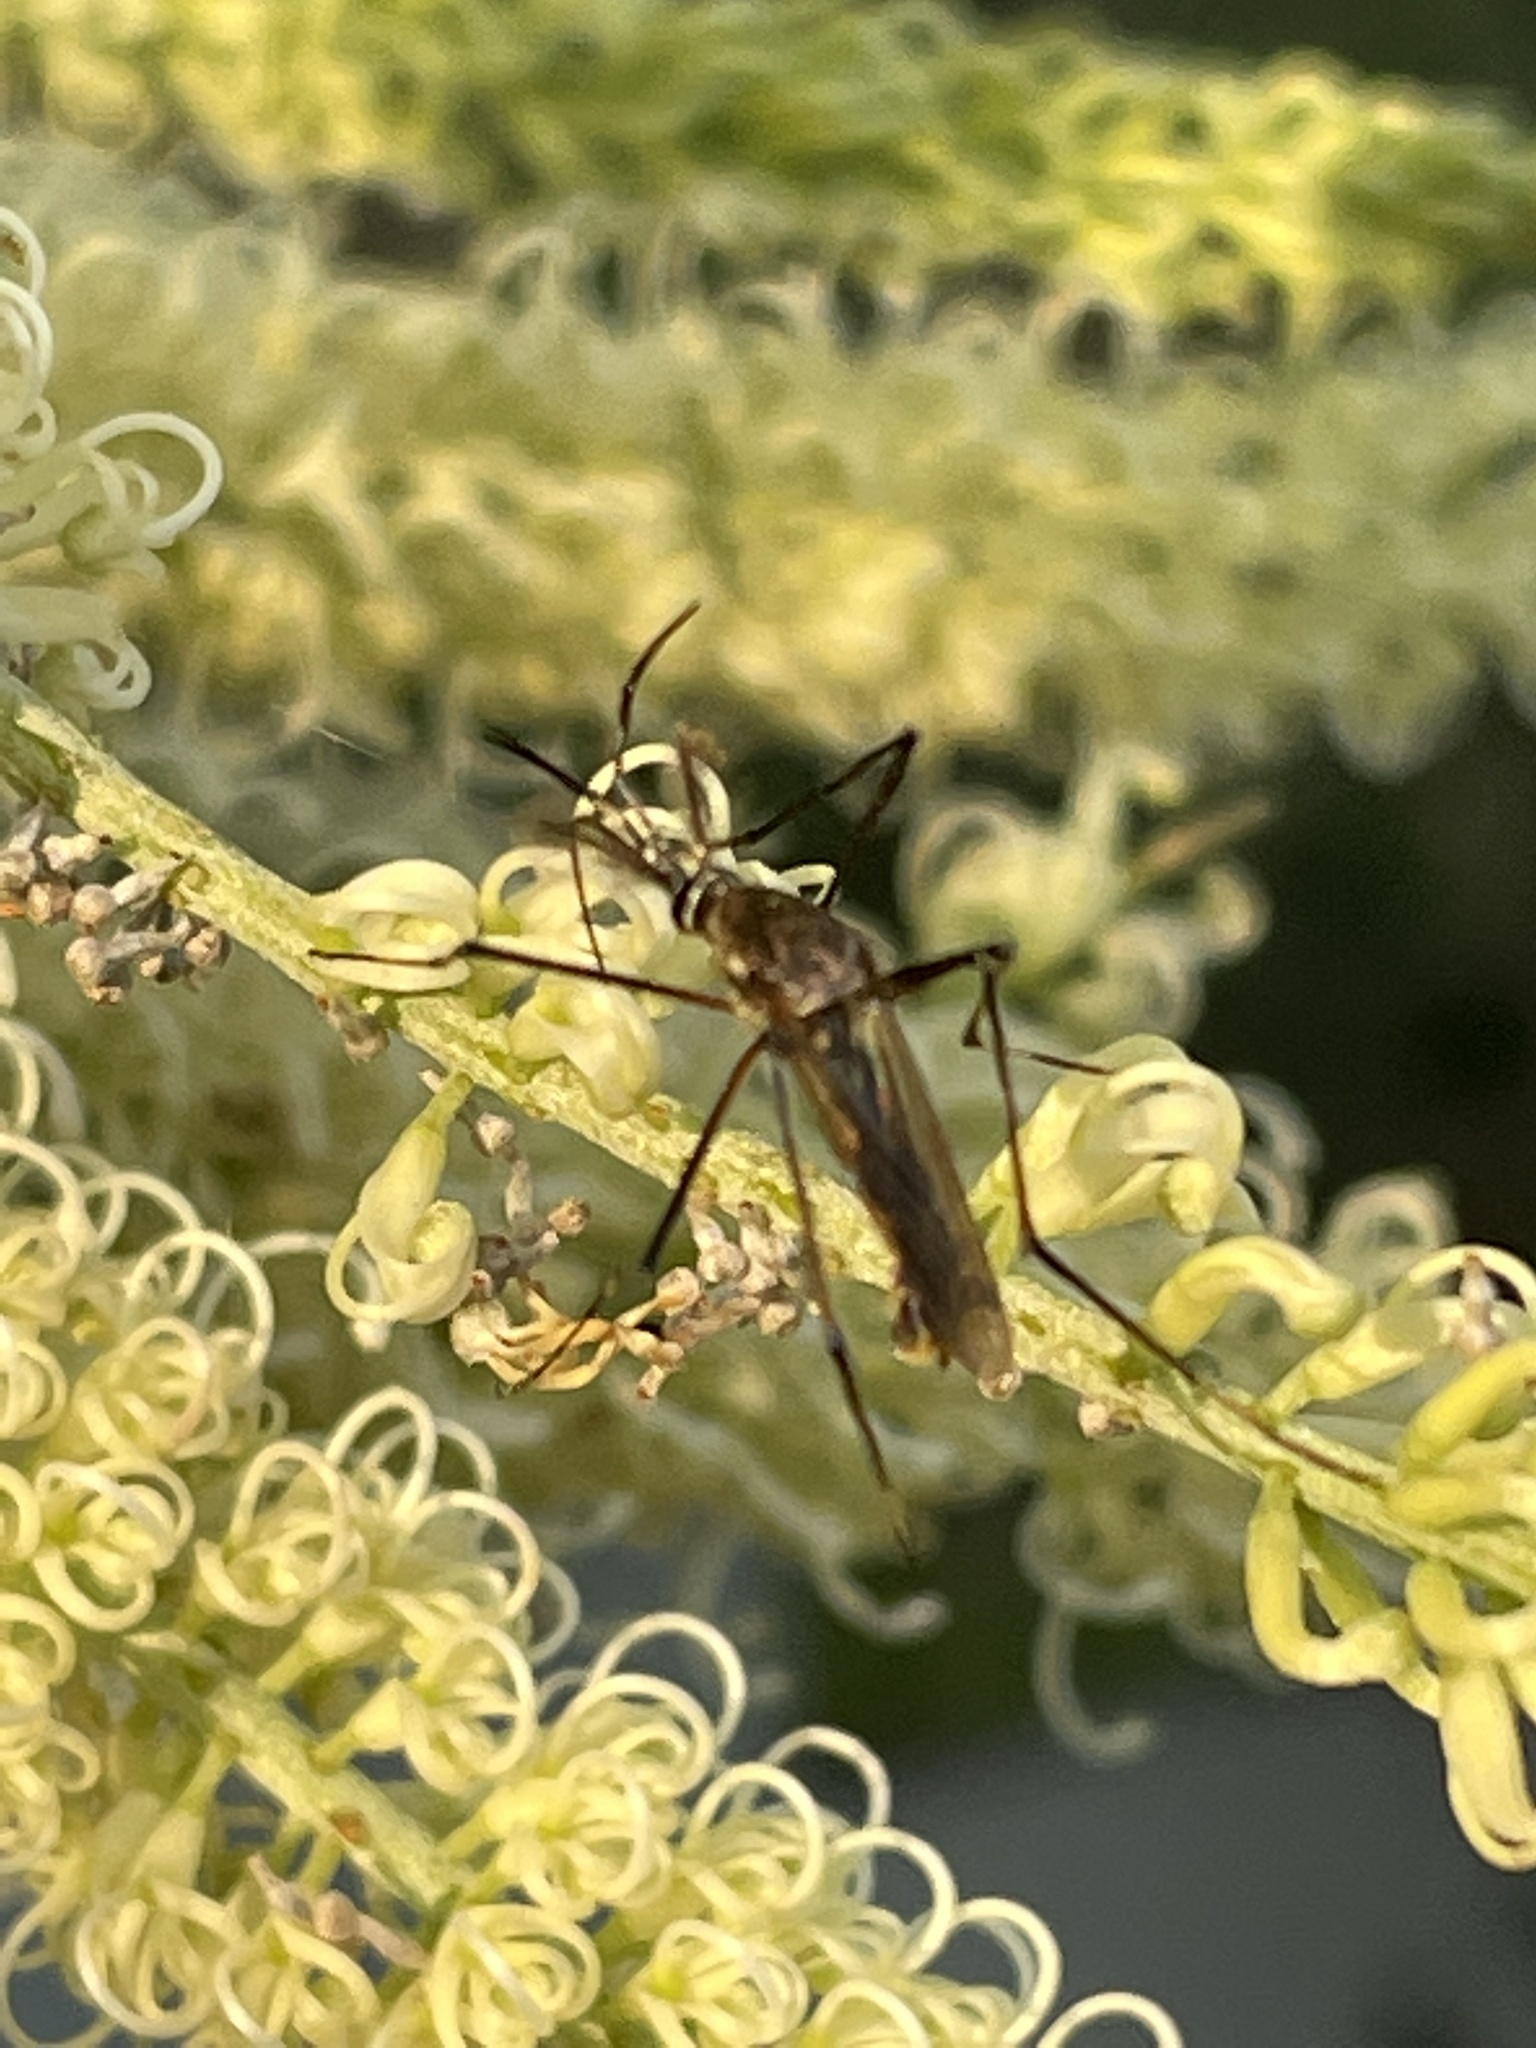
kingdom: Animalia
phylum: Arthropoda
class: Insecta
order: Diptera
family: Culicidae
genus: Toxorhynchites
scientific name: Toxorhynchites speciosus
